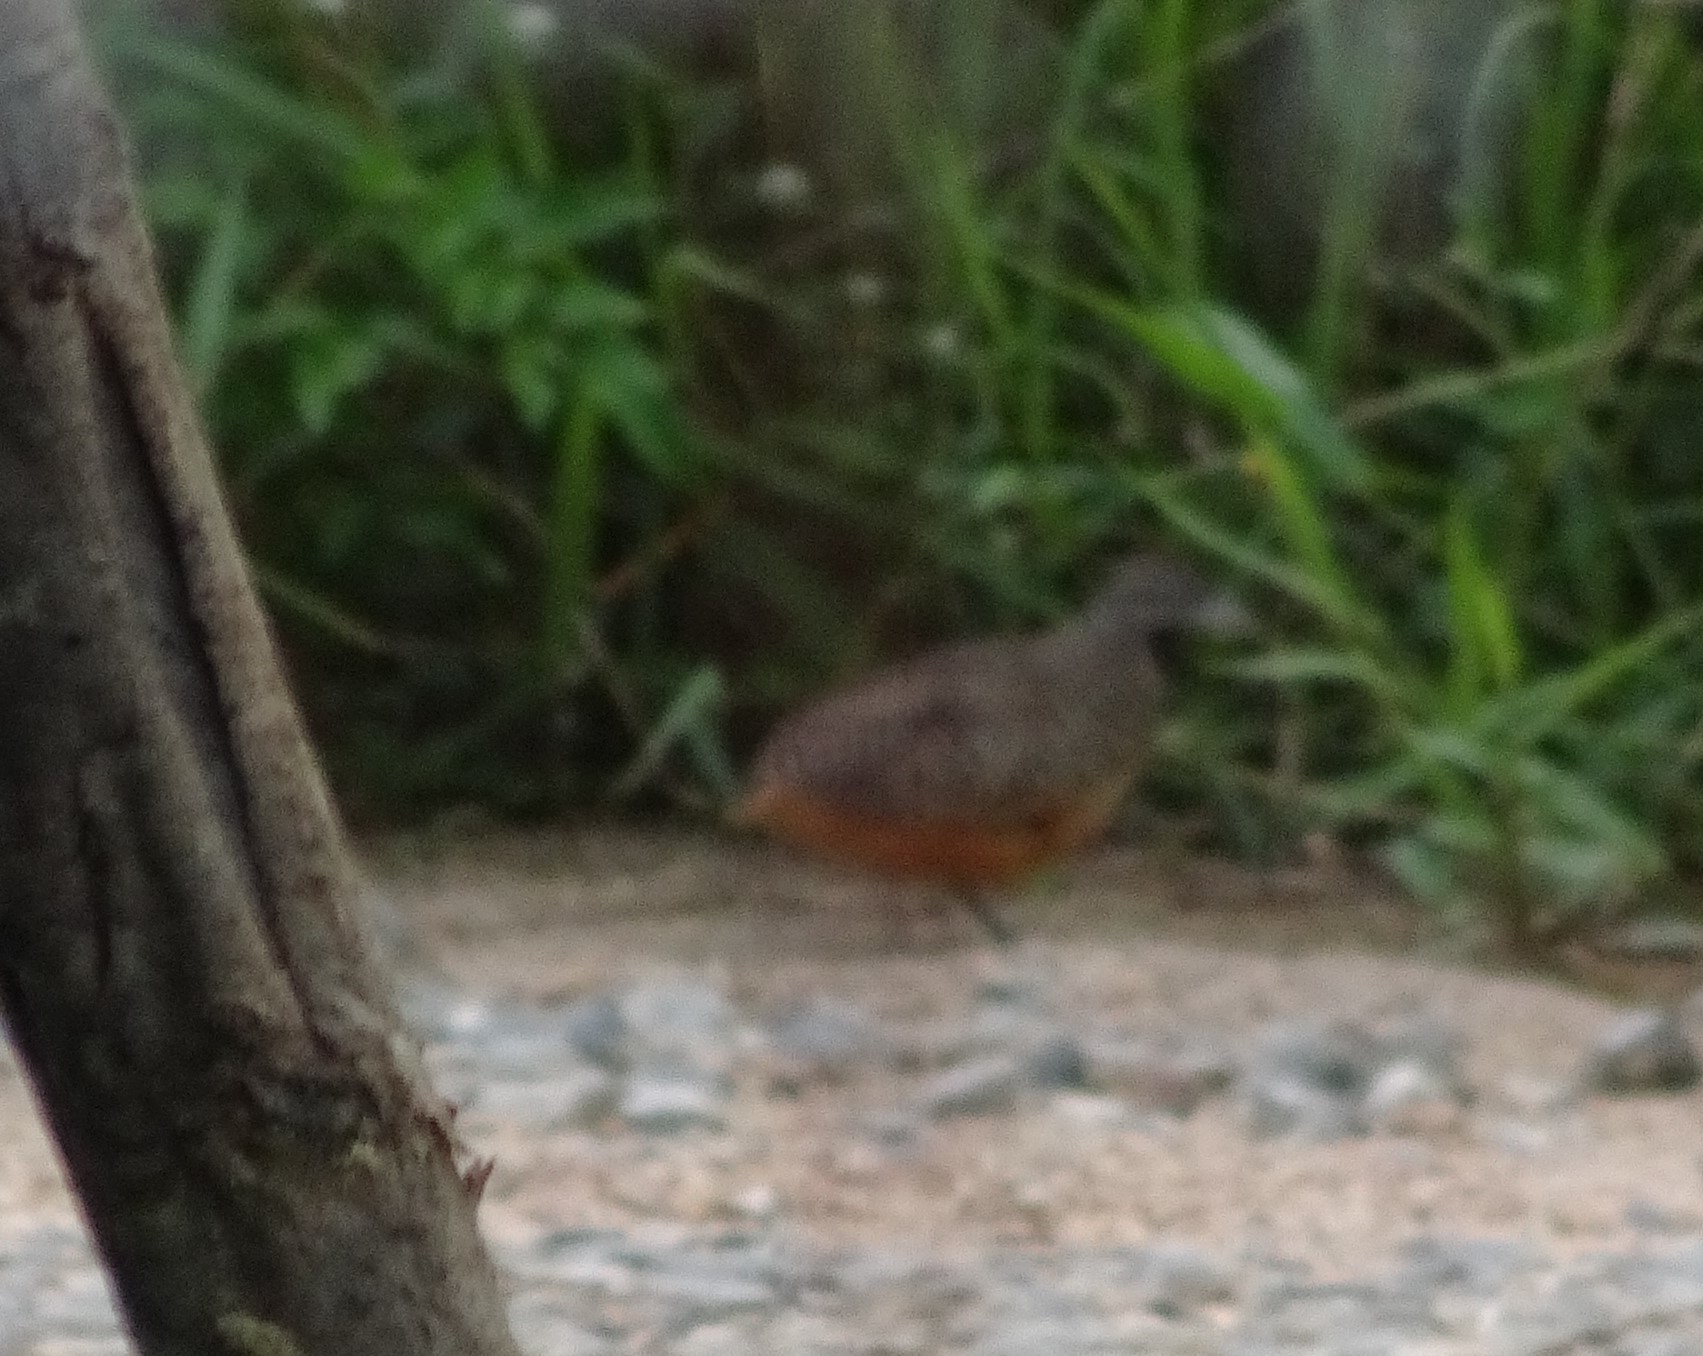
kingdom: Animalia
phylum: Chordata
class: Aves
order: Charadriiformes
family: Turnicidae
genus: Turnix
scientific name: Turnix suscitator
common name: Barred buttonquail
